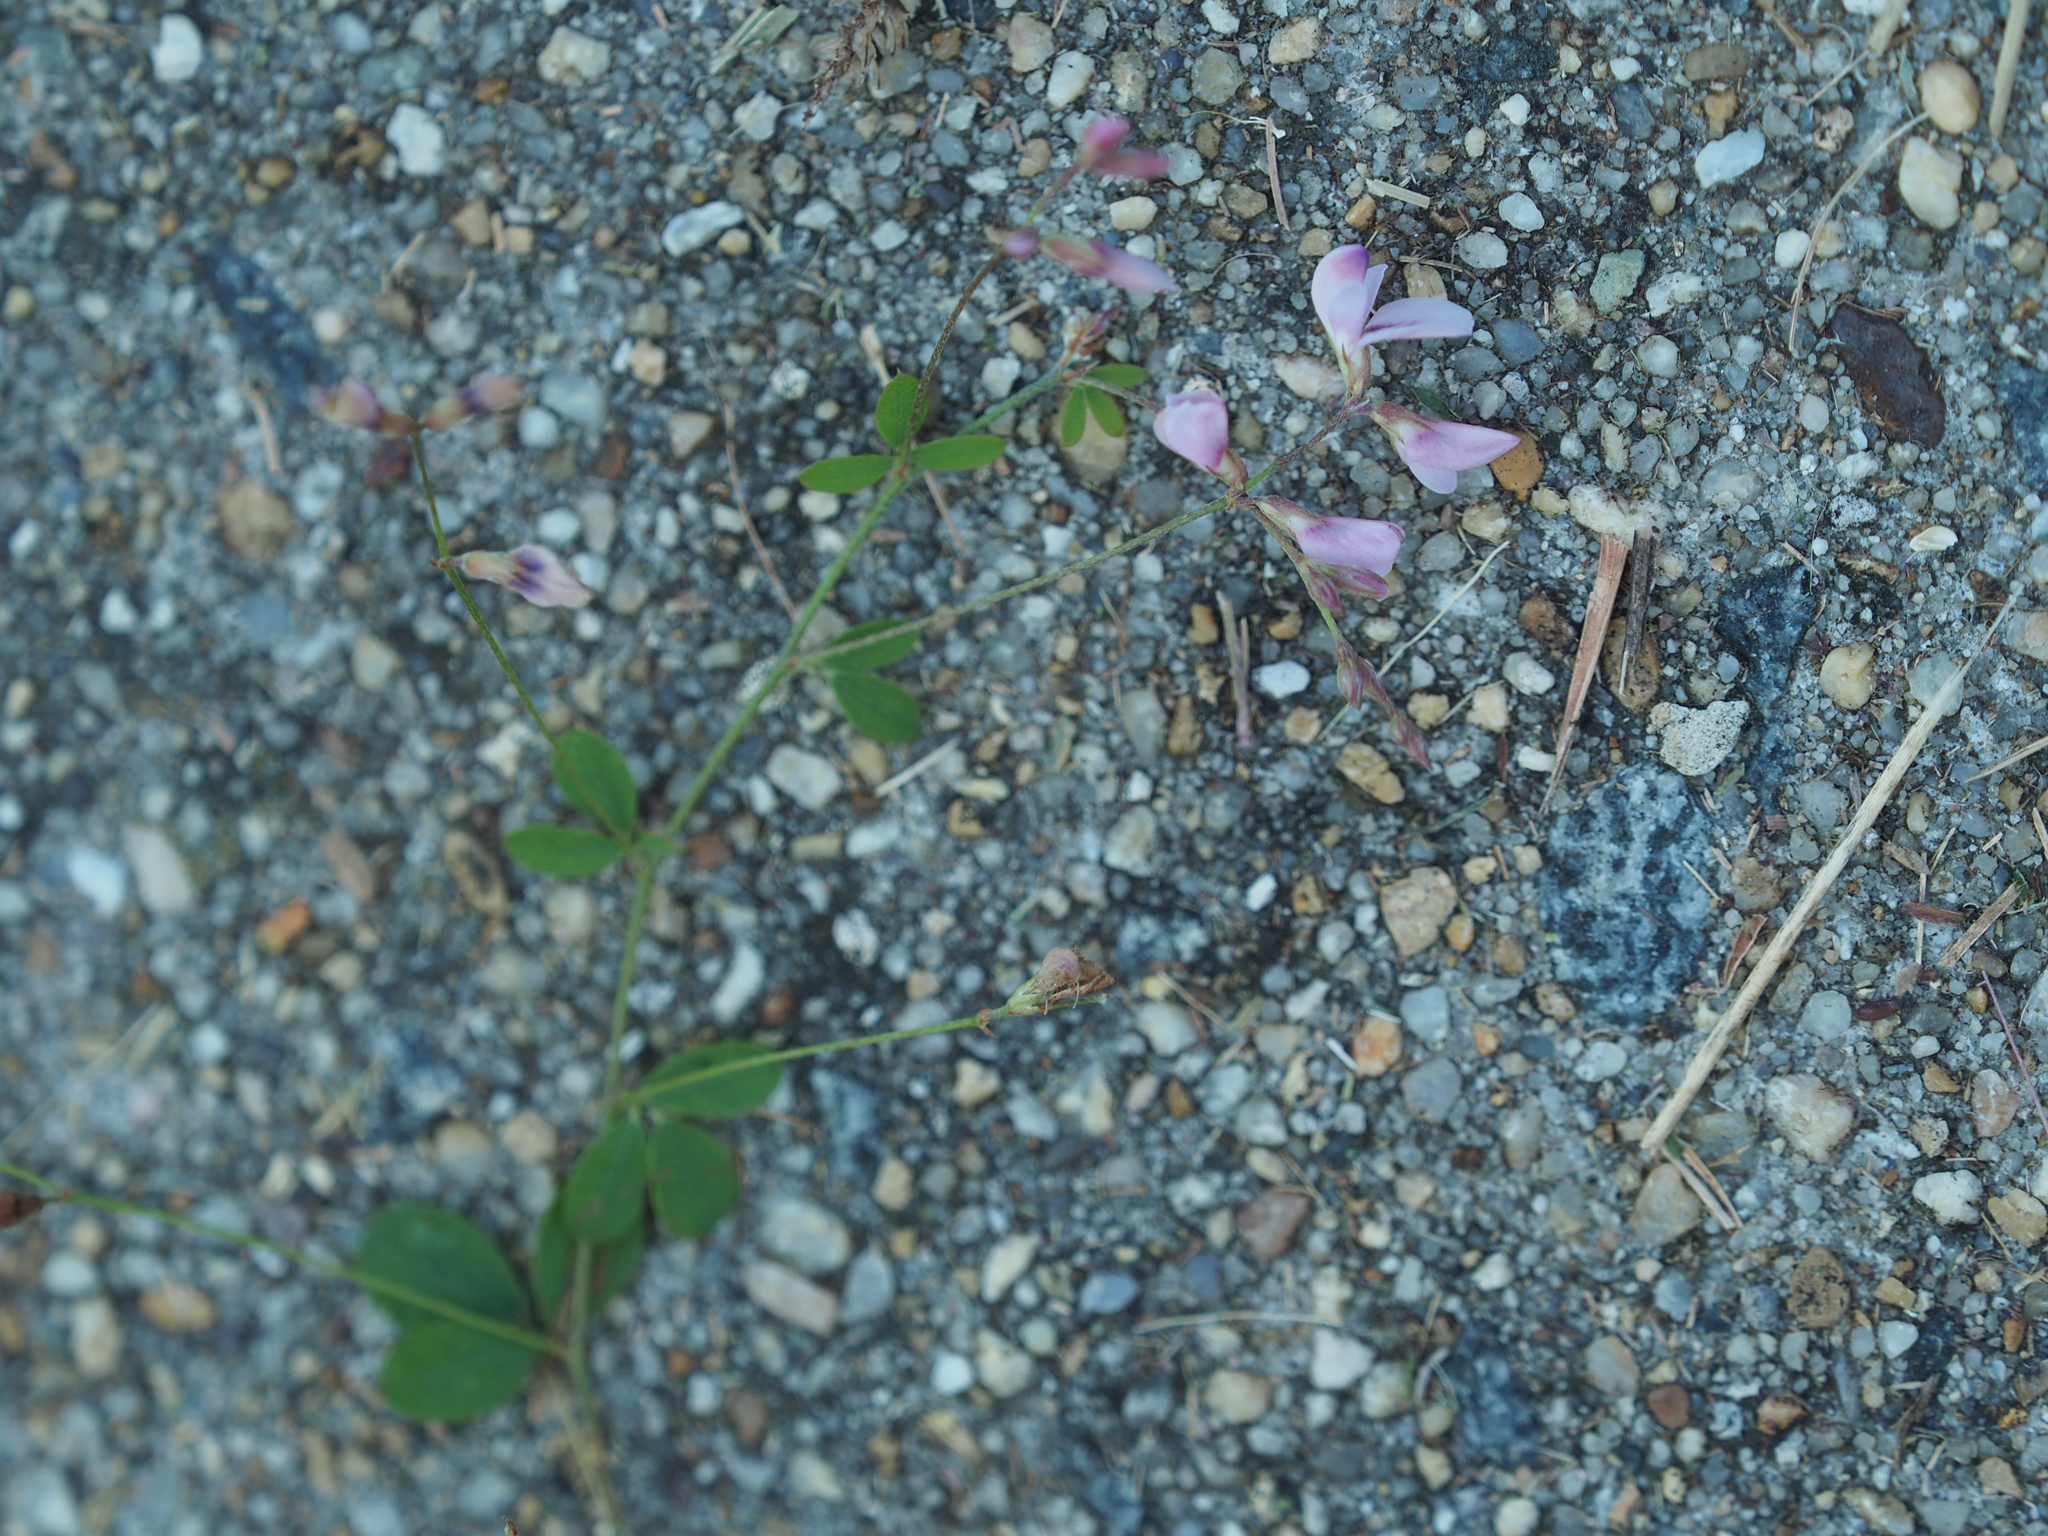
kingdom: Plantae
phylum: Tracheophyta
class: Magnoliopsida
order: Fabales
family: Fabaceae
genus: Lespedeza
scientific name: Lespedeza repens
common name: Creeping bush-clover
